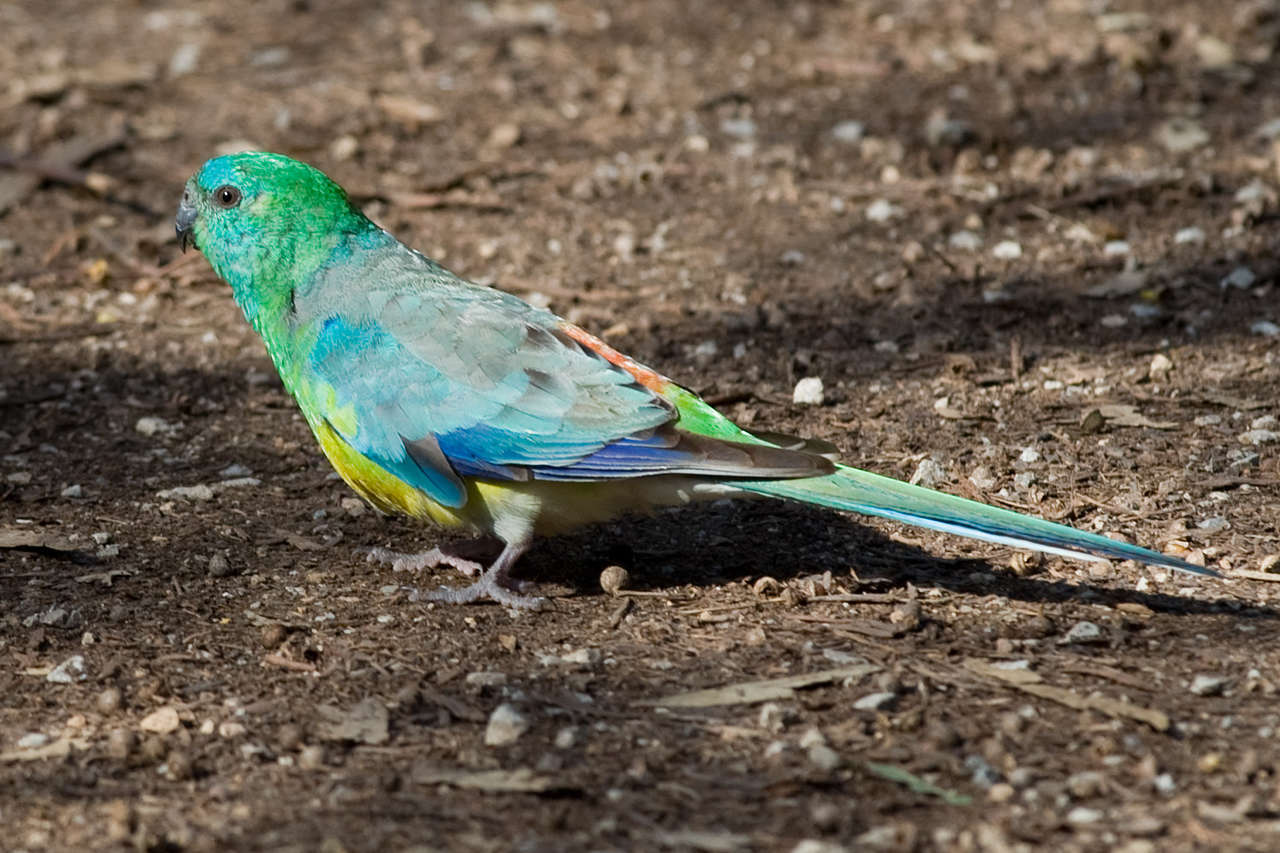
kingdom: Animalia
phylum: Chordata
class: Aves
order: Psittaciformes
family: Psittacidae
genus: Psephotus
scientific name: Psephotus haematonotus
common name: Red-rumped parrot
